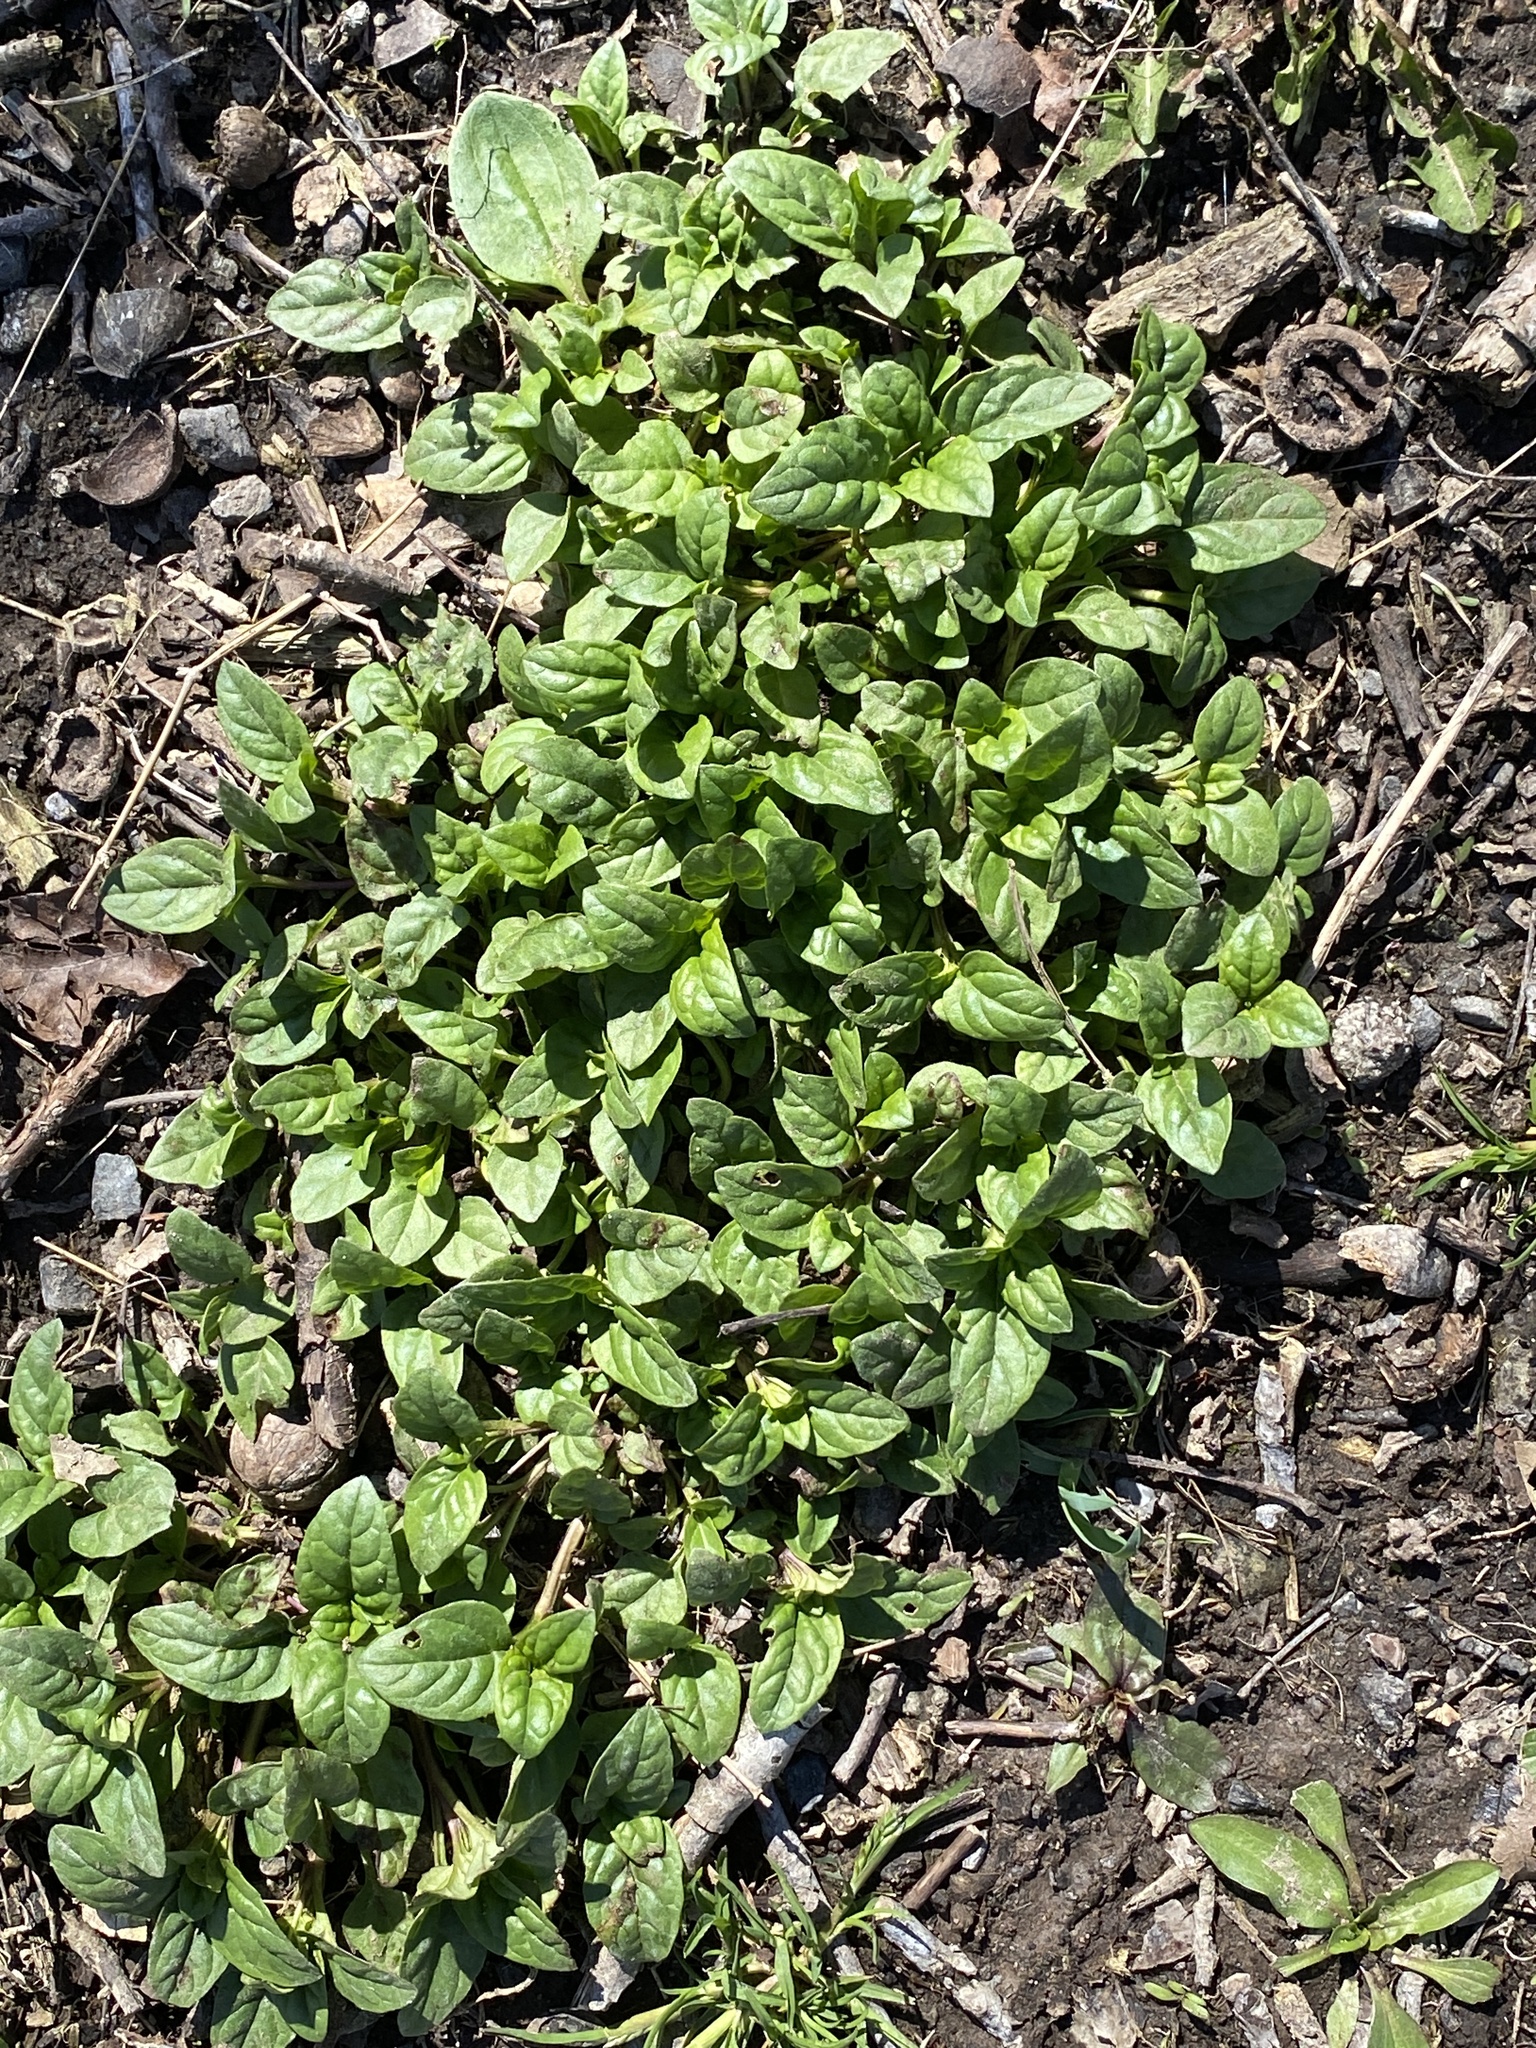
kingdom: Plantae
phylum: Tracheophyta
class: Magnoliopsida
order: Lamiales
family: Lamiaceae
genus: Prunella
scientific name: Prunella vulgaris
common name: Heal-all
